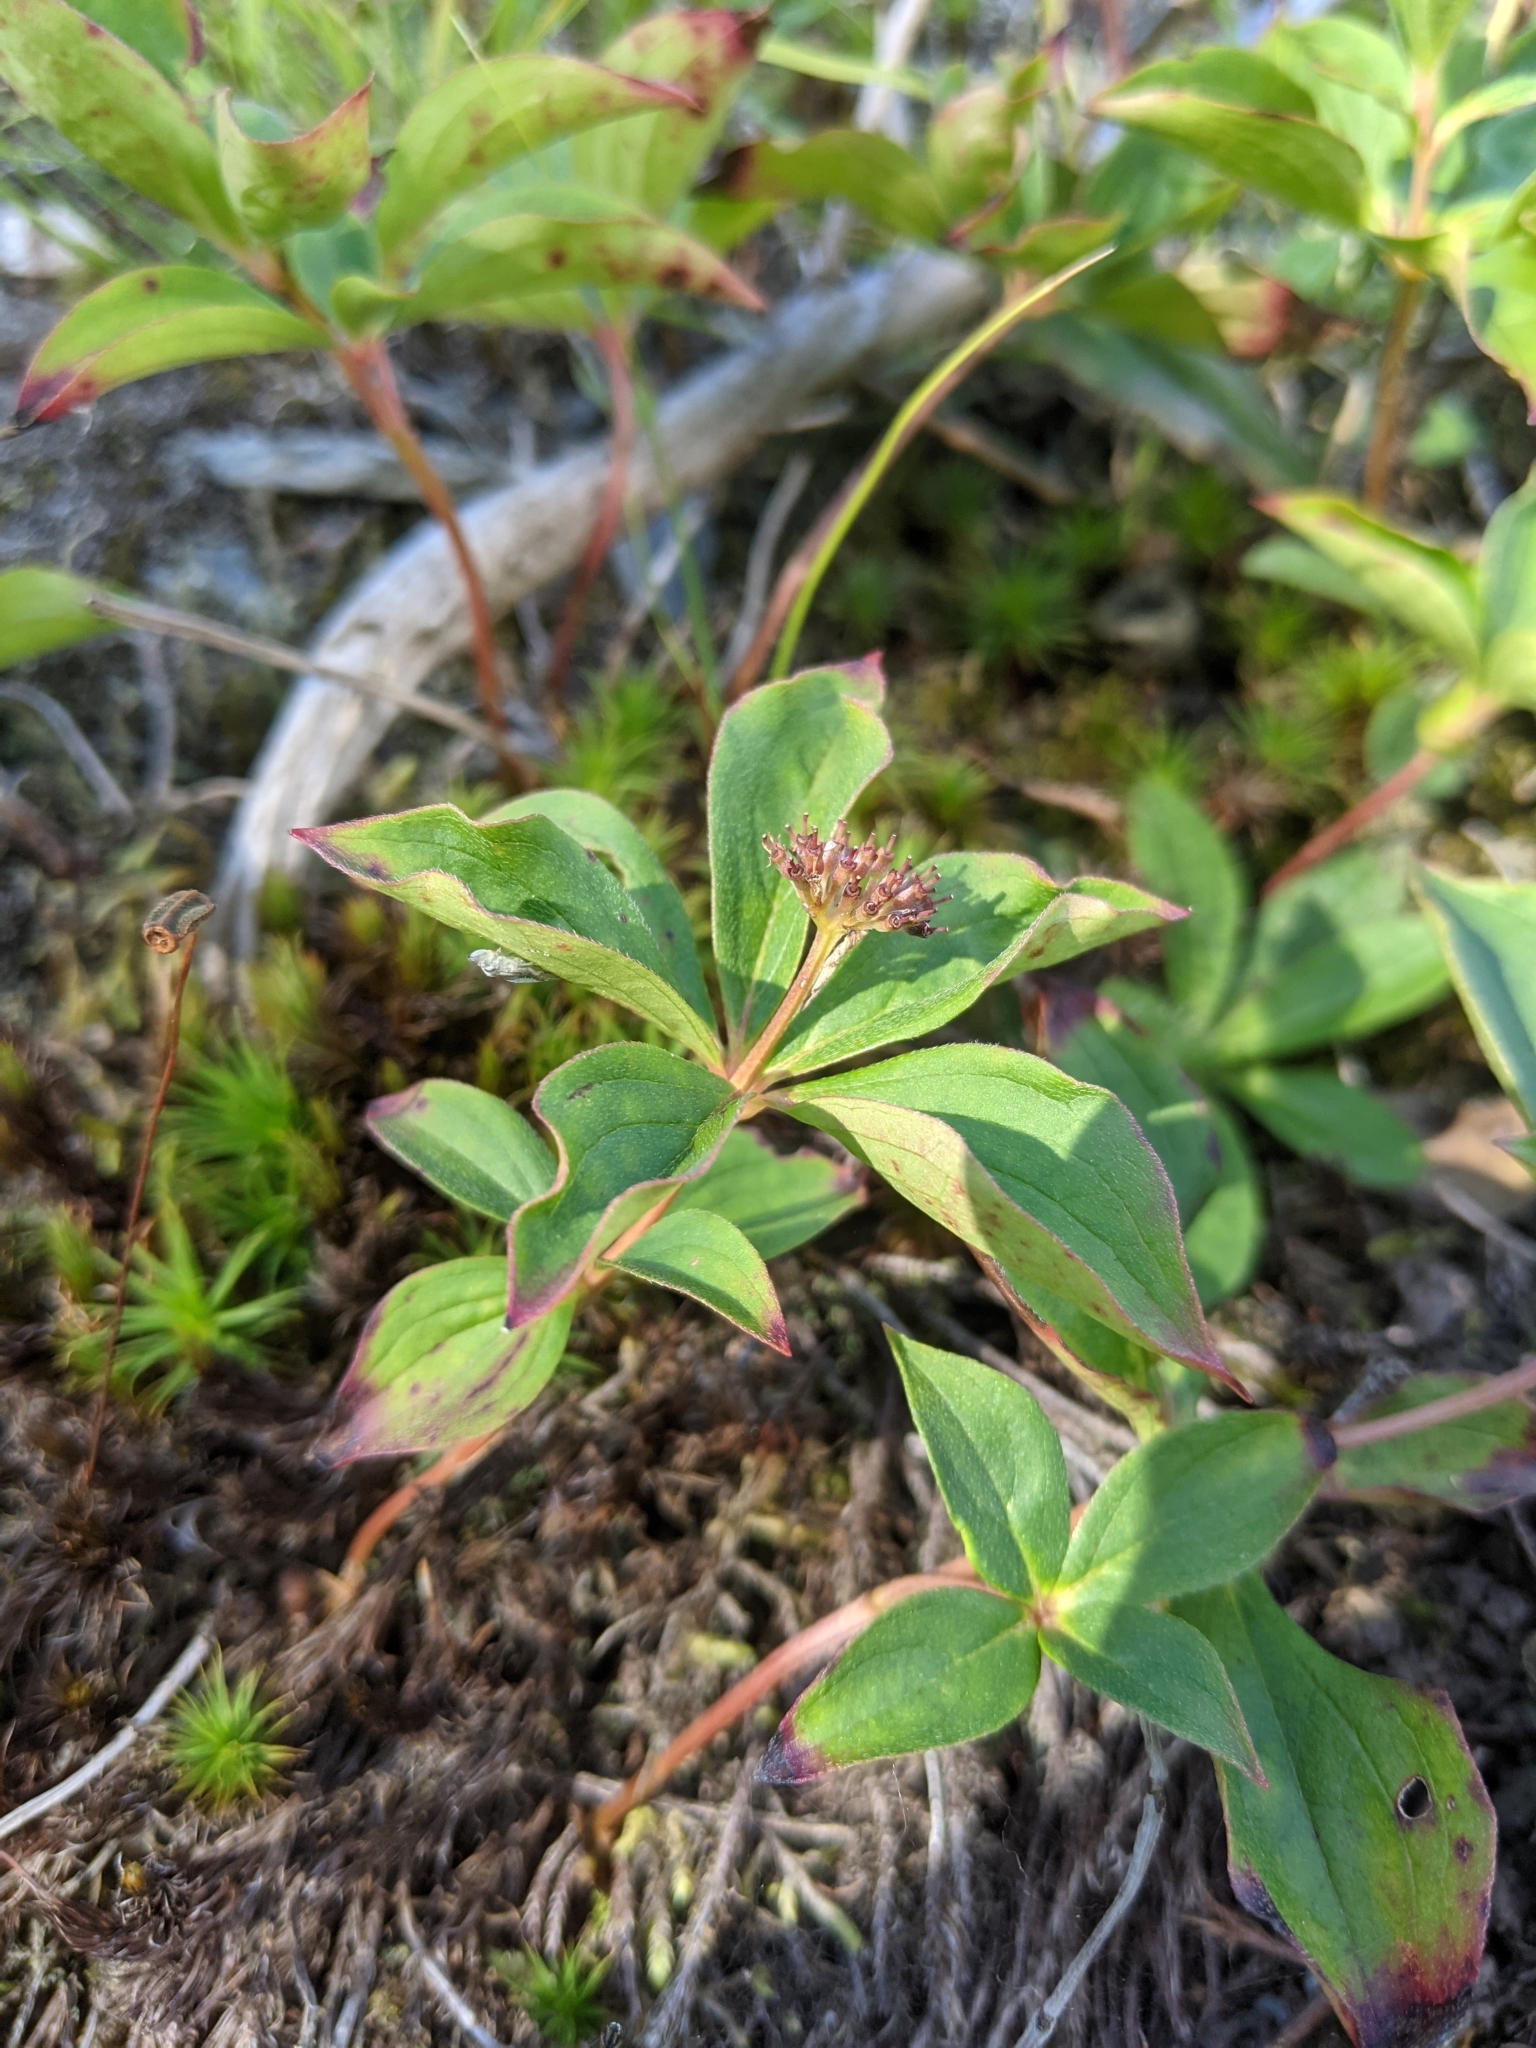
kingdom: Plantae
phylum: Tracheophyta
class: Magnoliopsida
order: Cornales
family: Cornaceae
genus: Cornus
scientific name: Cornus canadensis
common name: Creeping dogwood
